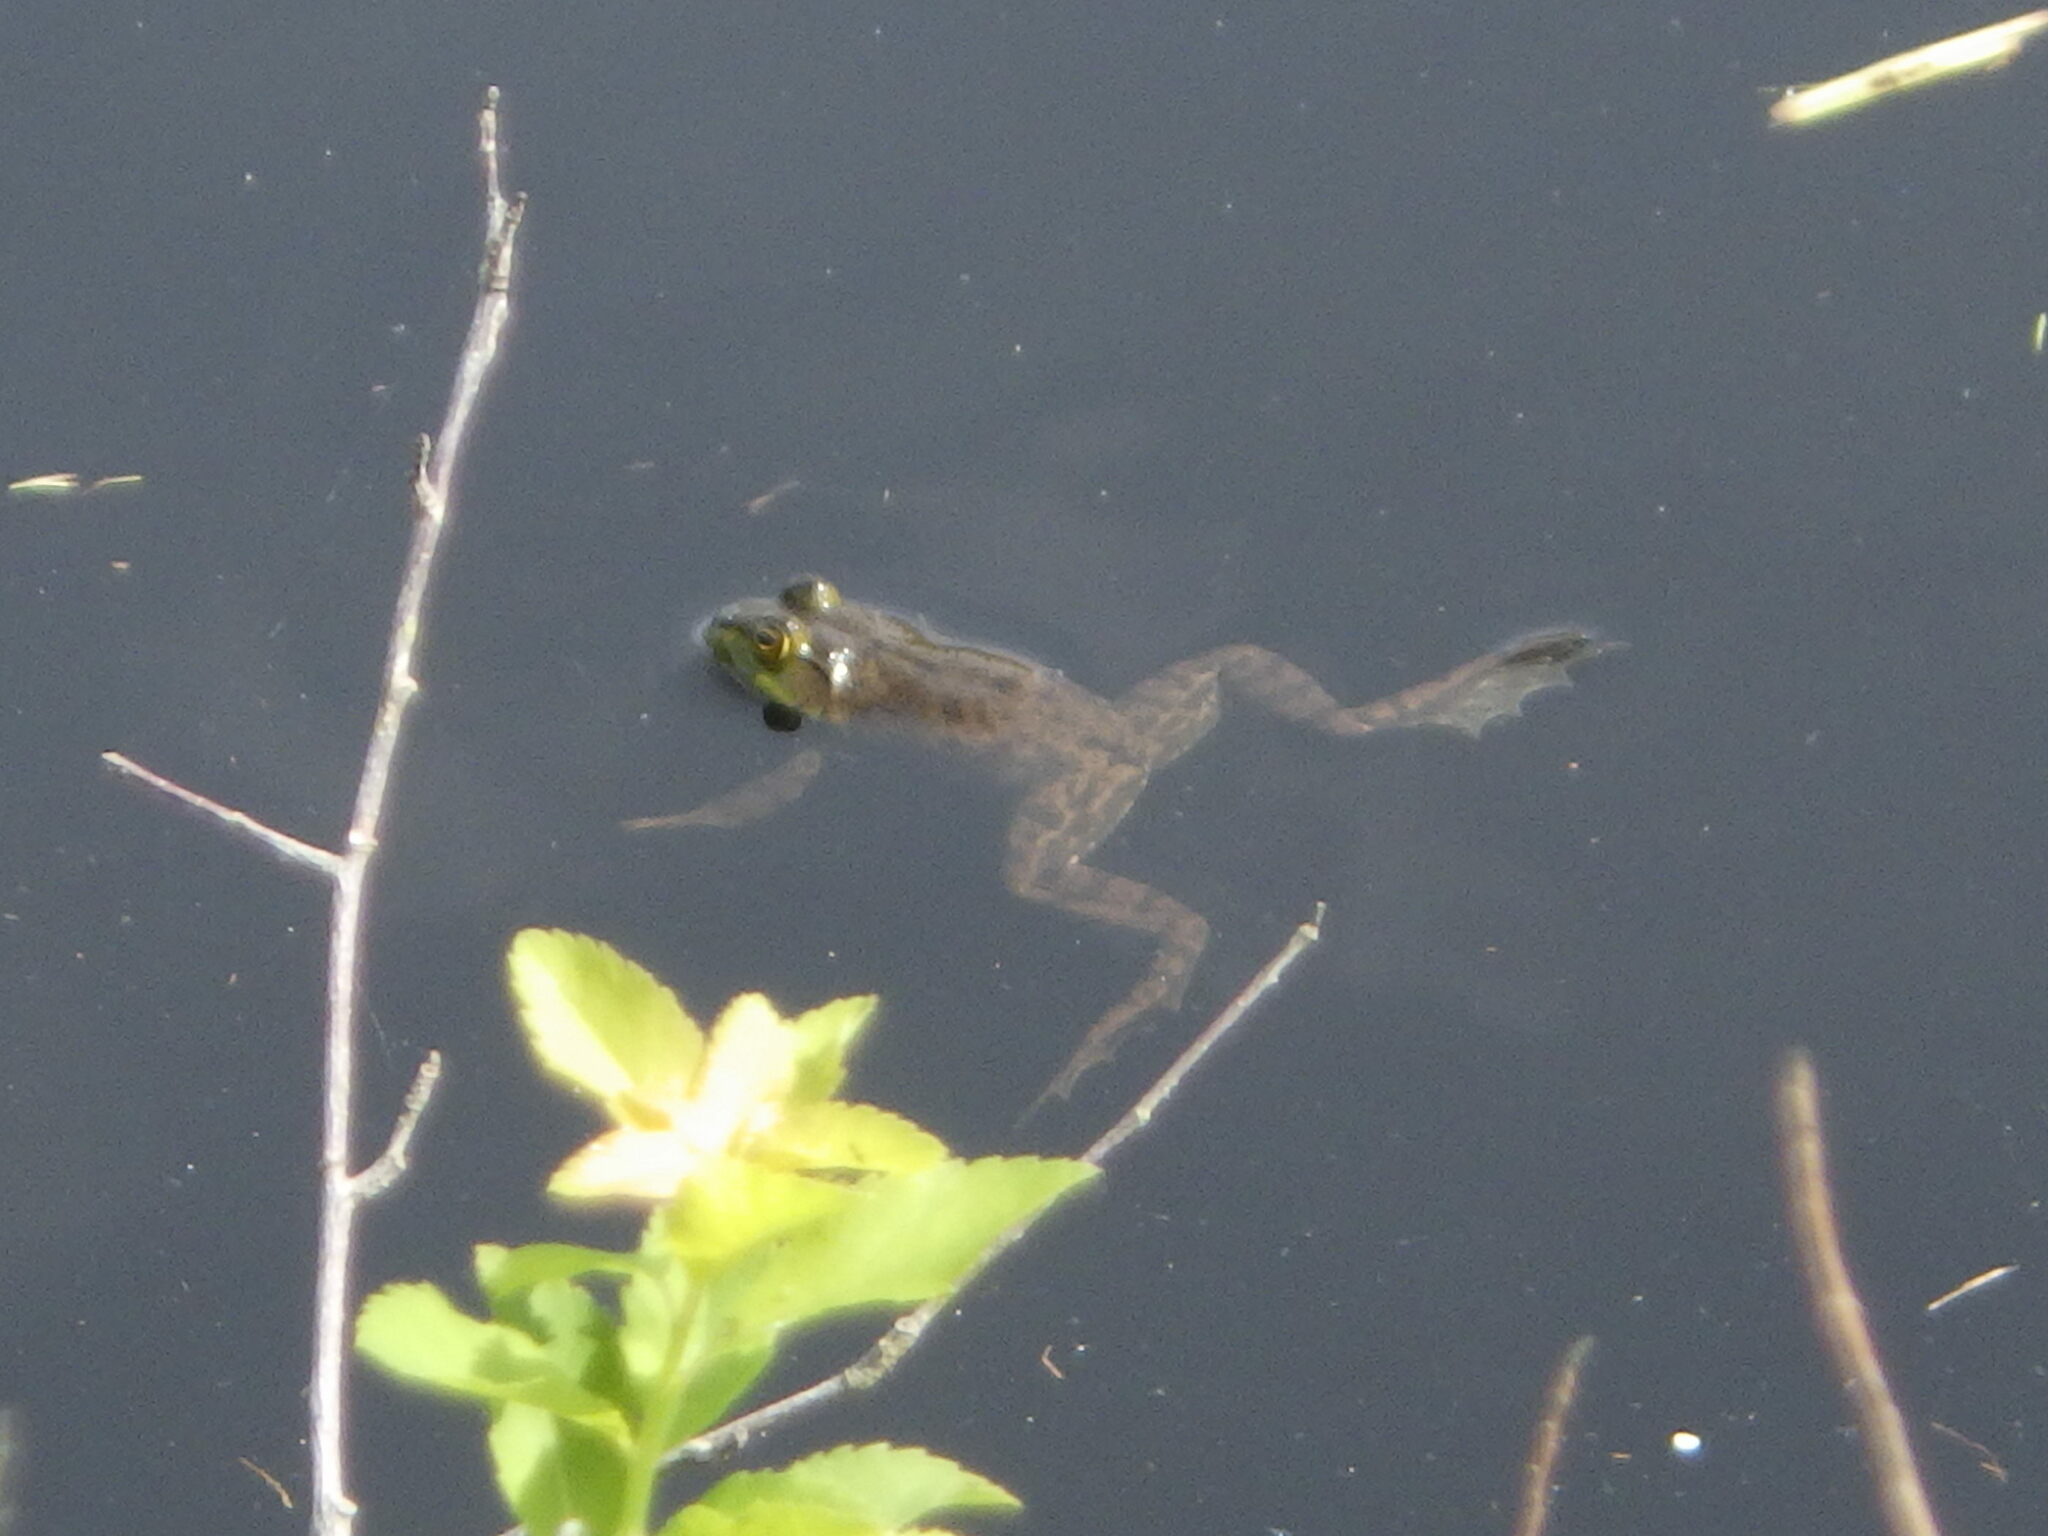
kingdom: Animalia
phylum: Chordata
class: Amphibia
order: Anura
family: Ranidae
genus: Lithobates
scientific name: Lithobates catesbeianus
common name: American bullfrog
